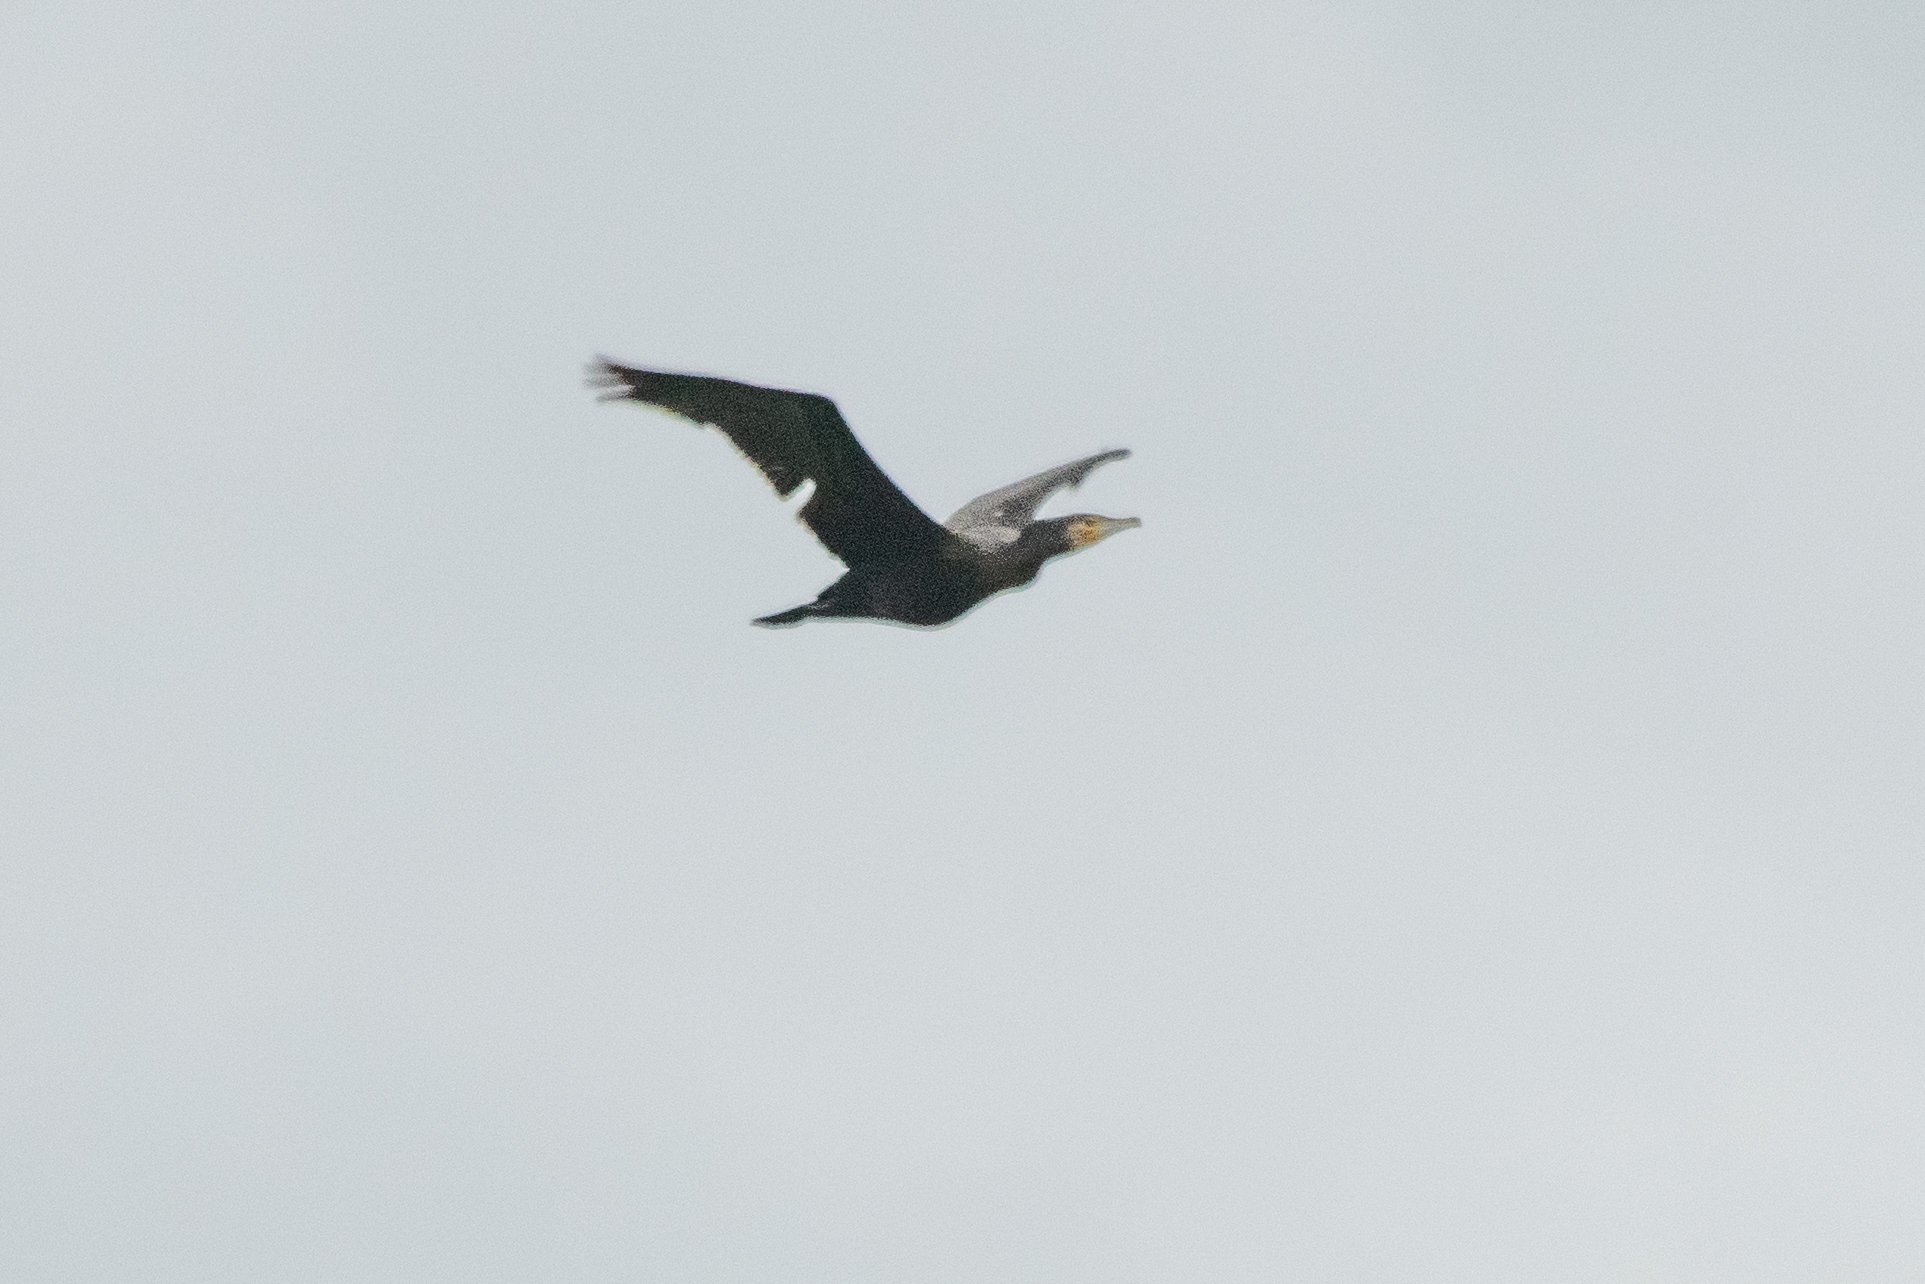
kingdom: Animalia
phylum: Chordata
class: Aves
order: Suliformes
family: Phalacrocoracidae
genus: Phalacrocorax
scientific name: Phalacrocorax carbo
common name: Great cormorant
